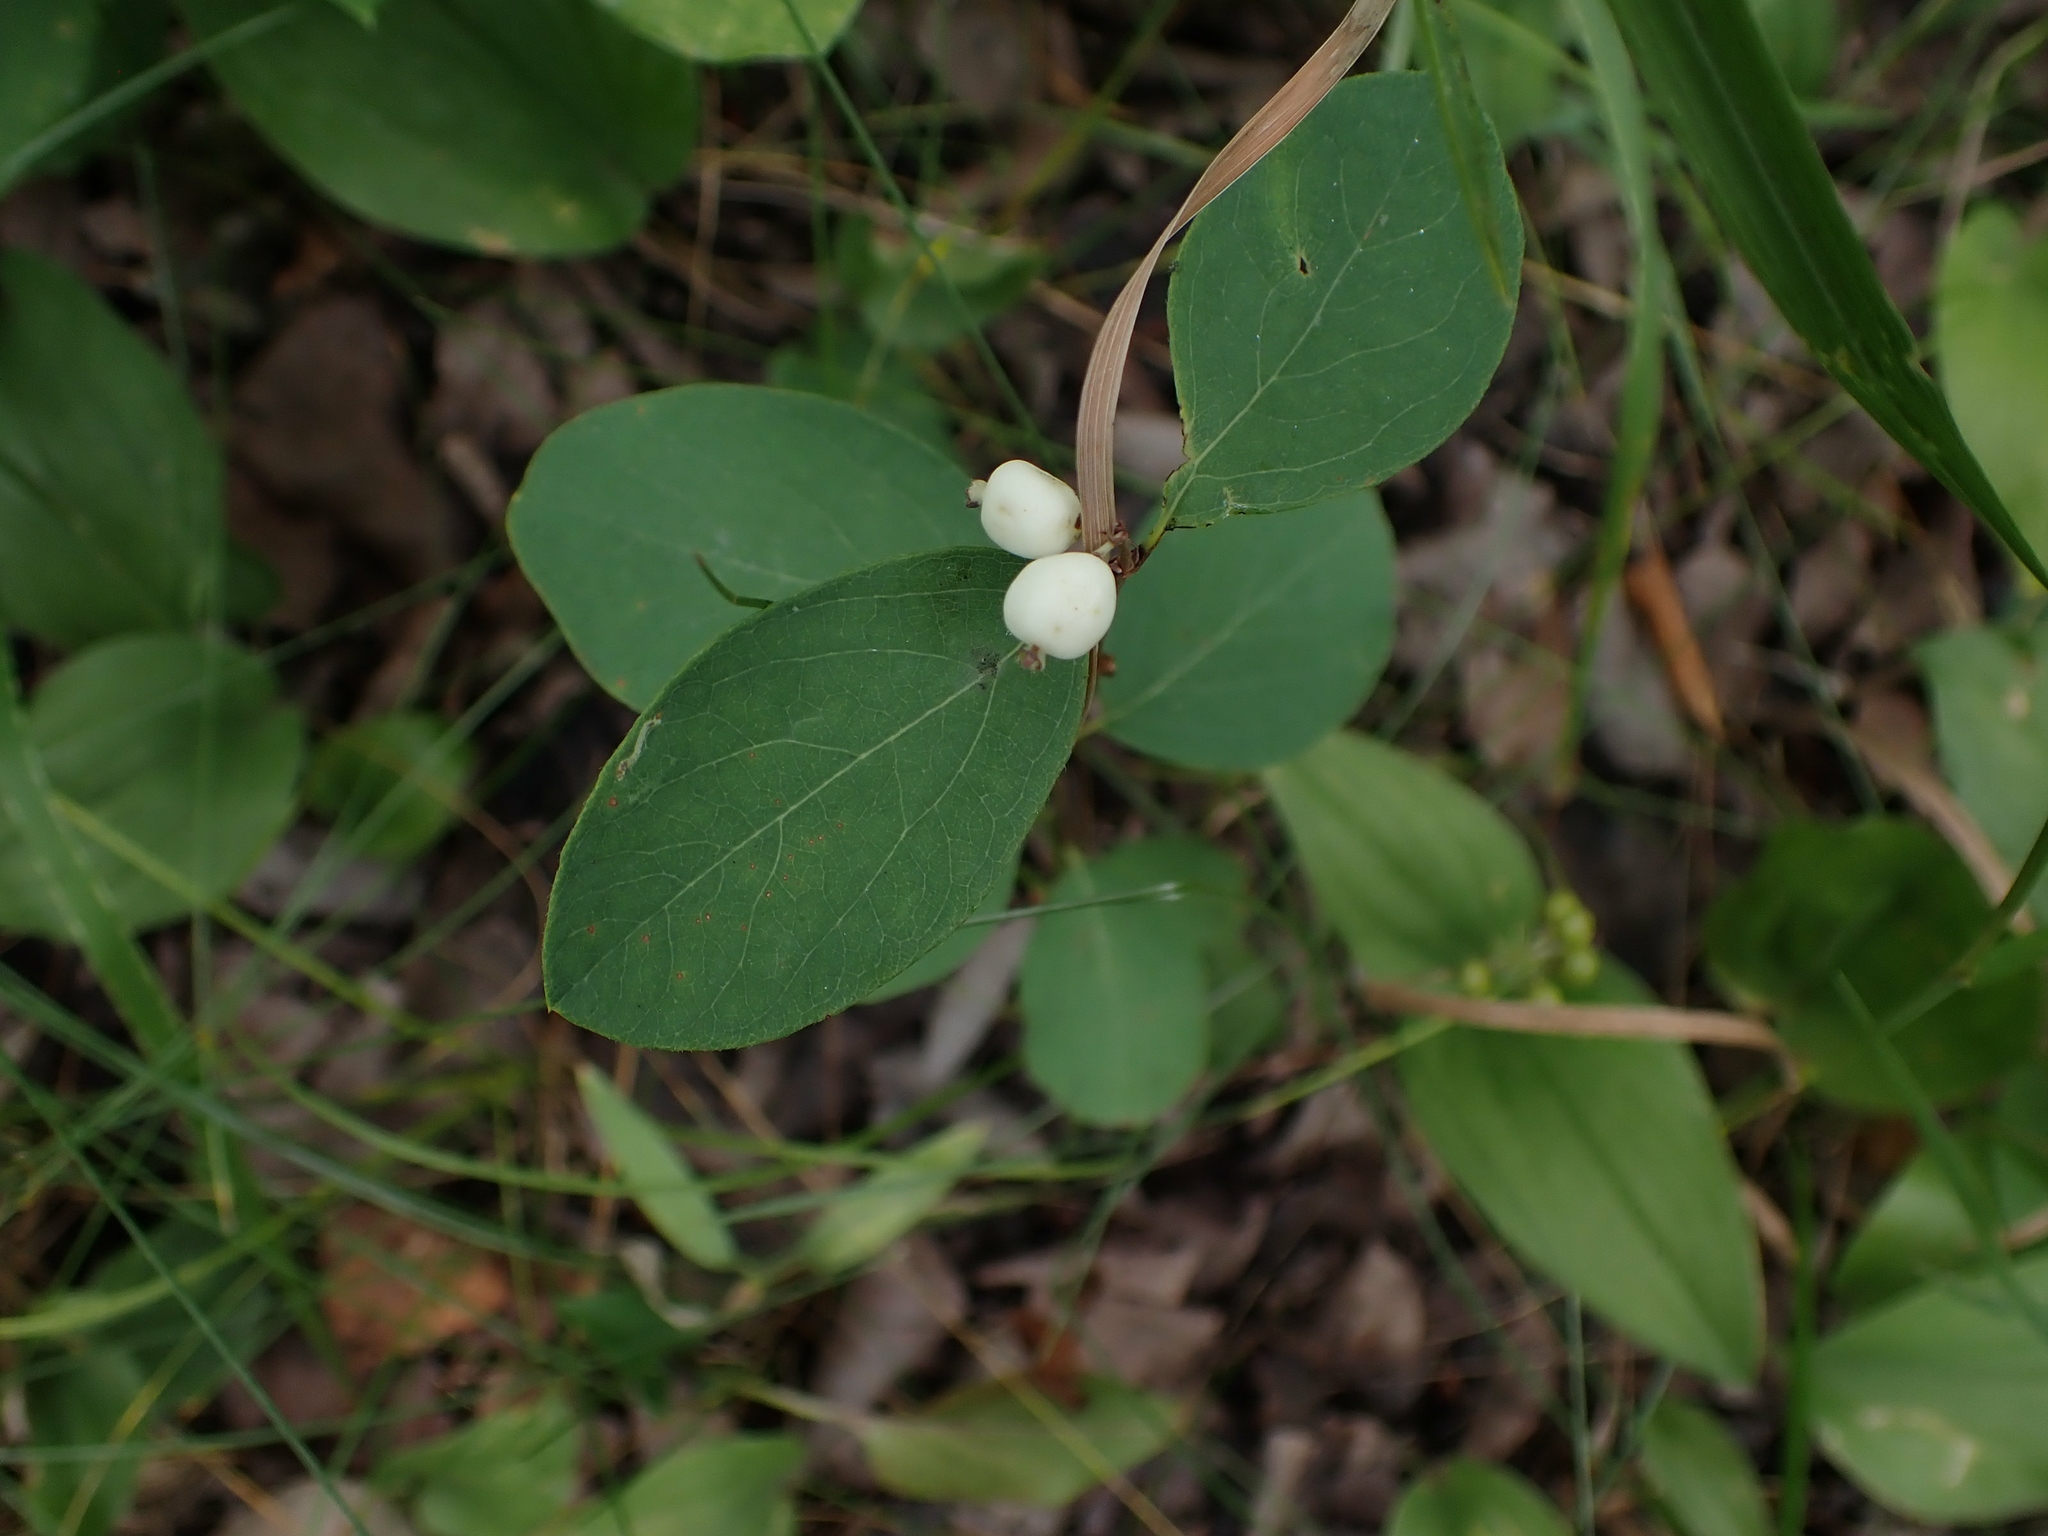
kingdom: Plantae
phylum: Tracheophyta
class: Magnoliopsida
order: Dipsacales
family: Caprifoliaceae
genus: Symphoricarpos
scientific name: Symphoricarpos albus
